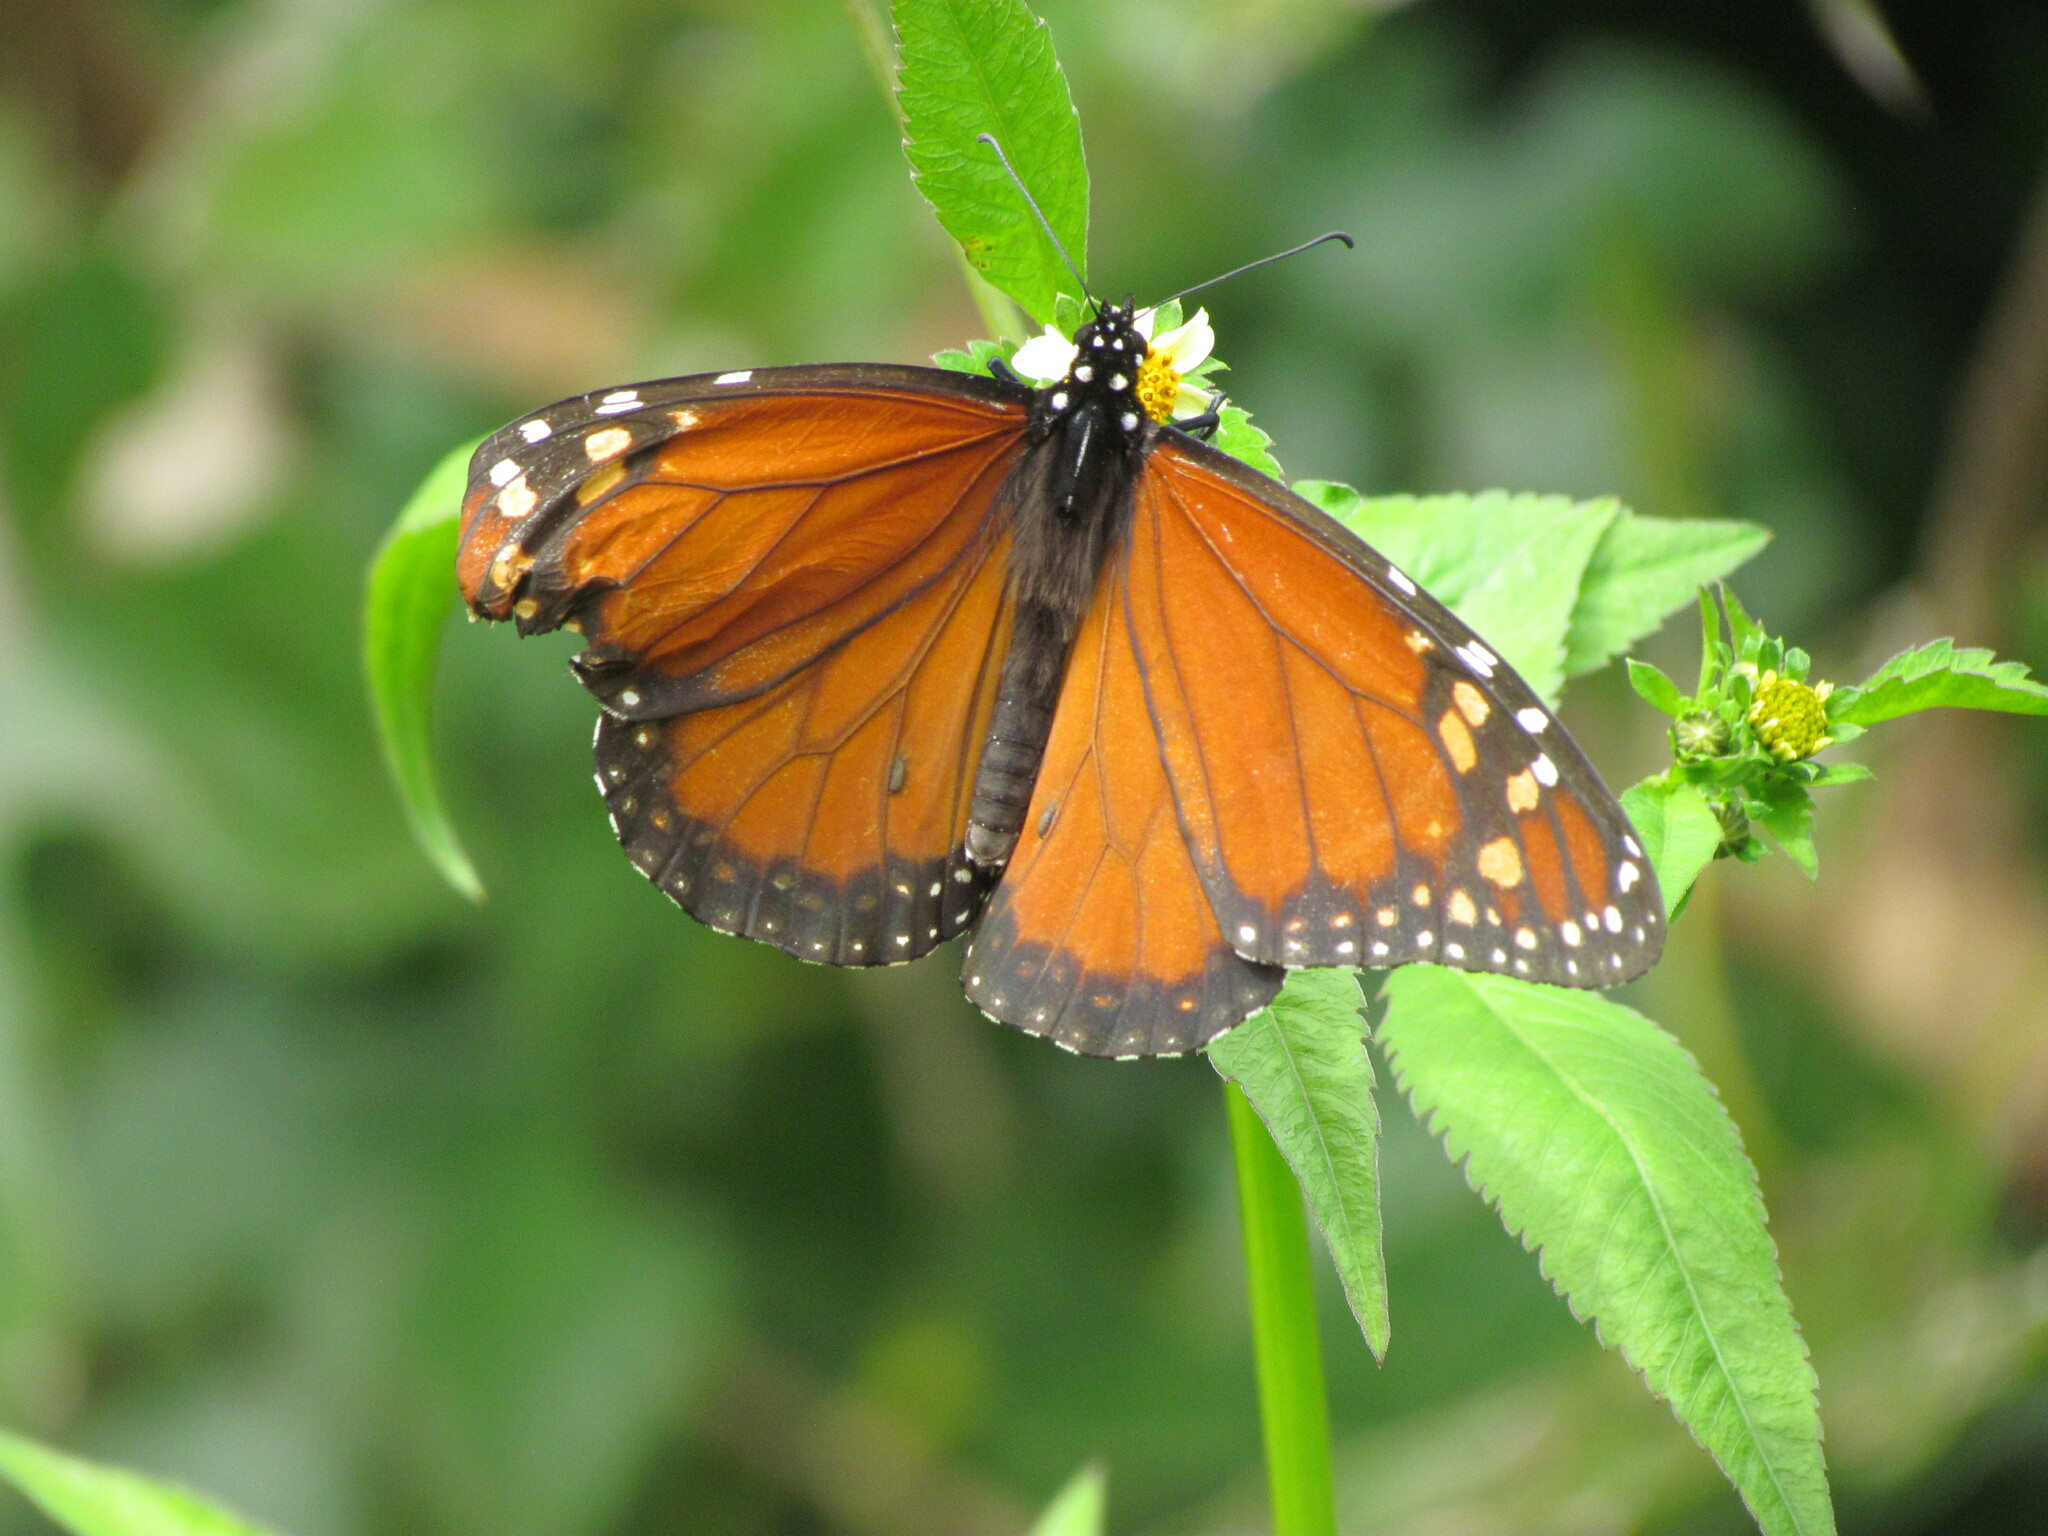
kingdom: Animalia
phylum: Arthropoda
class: Insecta
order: Lepidoptera
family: Nymphalidae
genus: Danaus
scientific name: Danaus erippus
